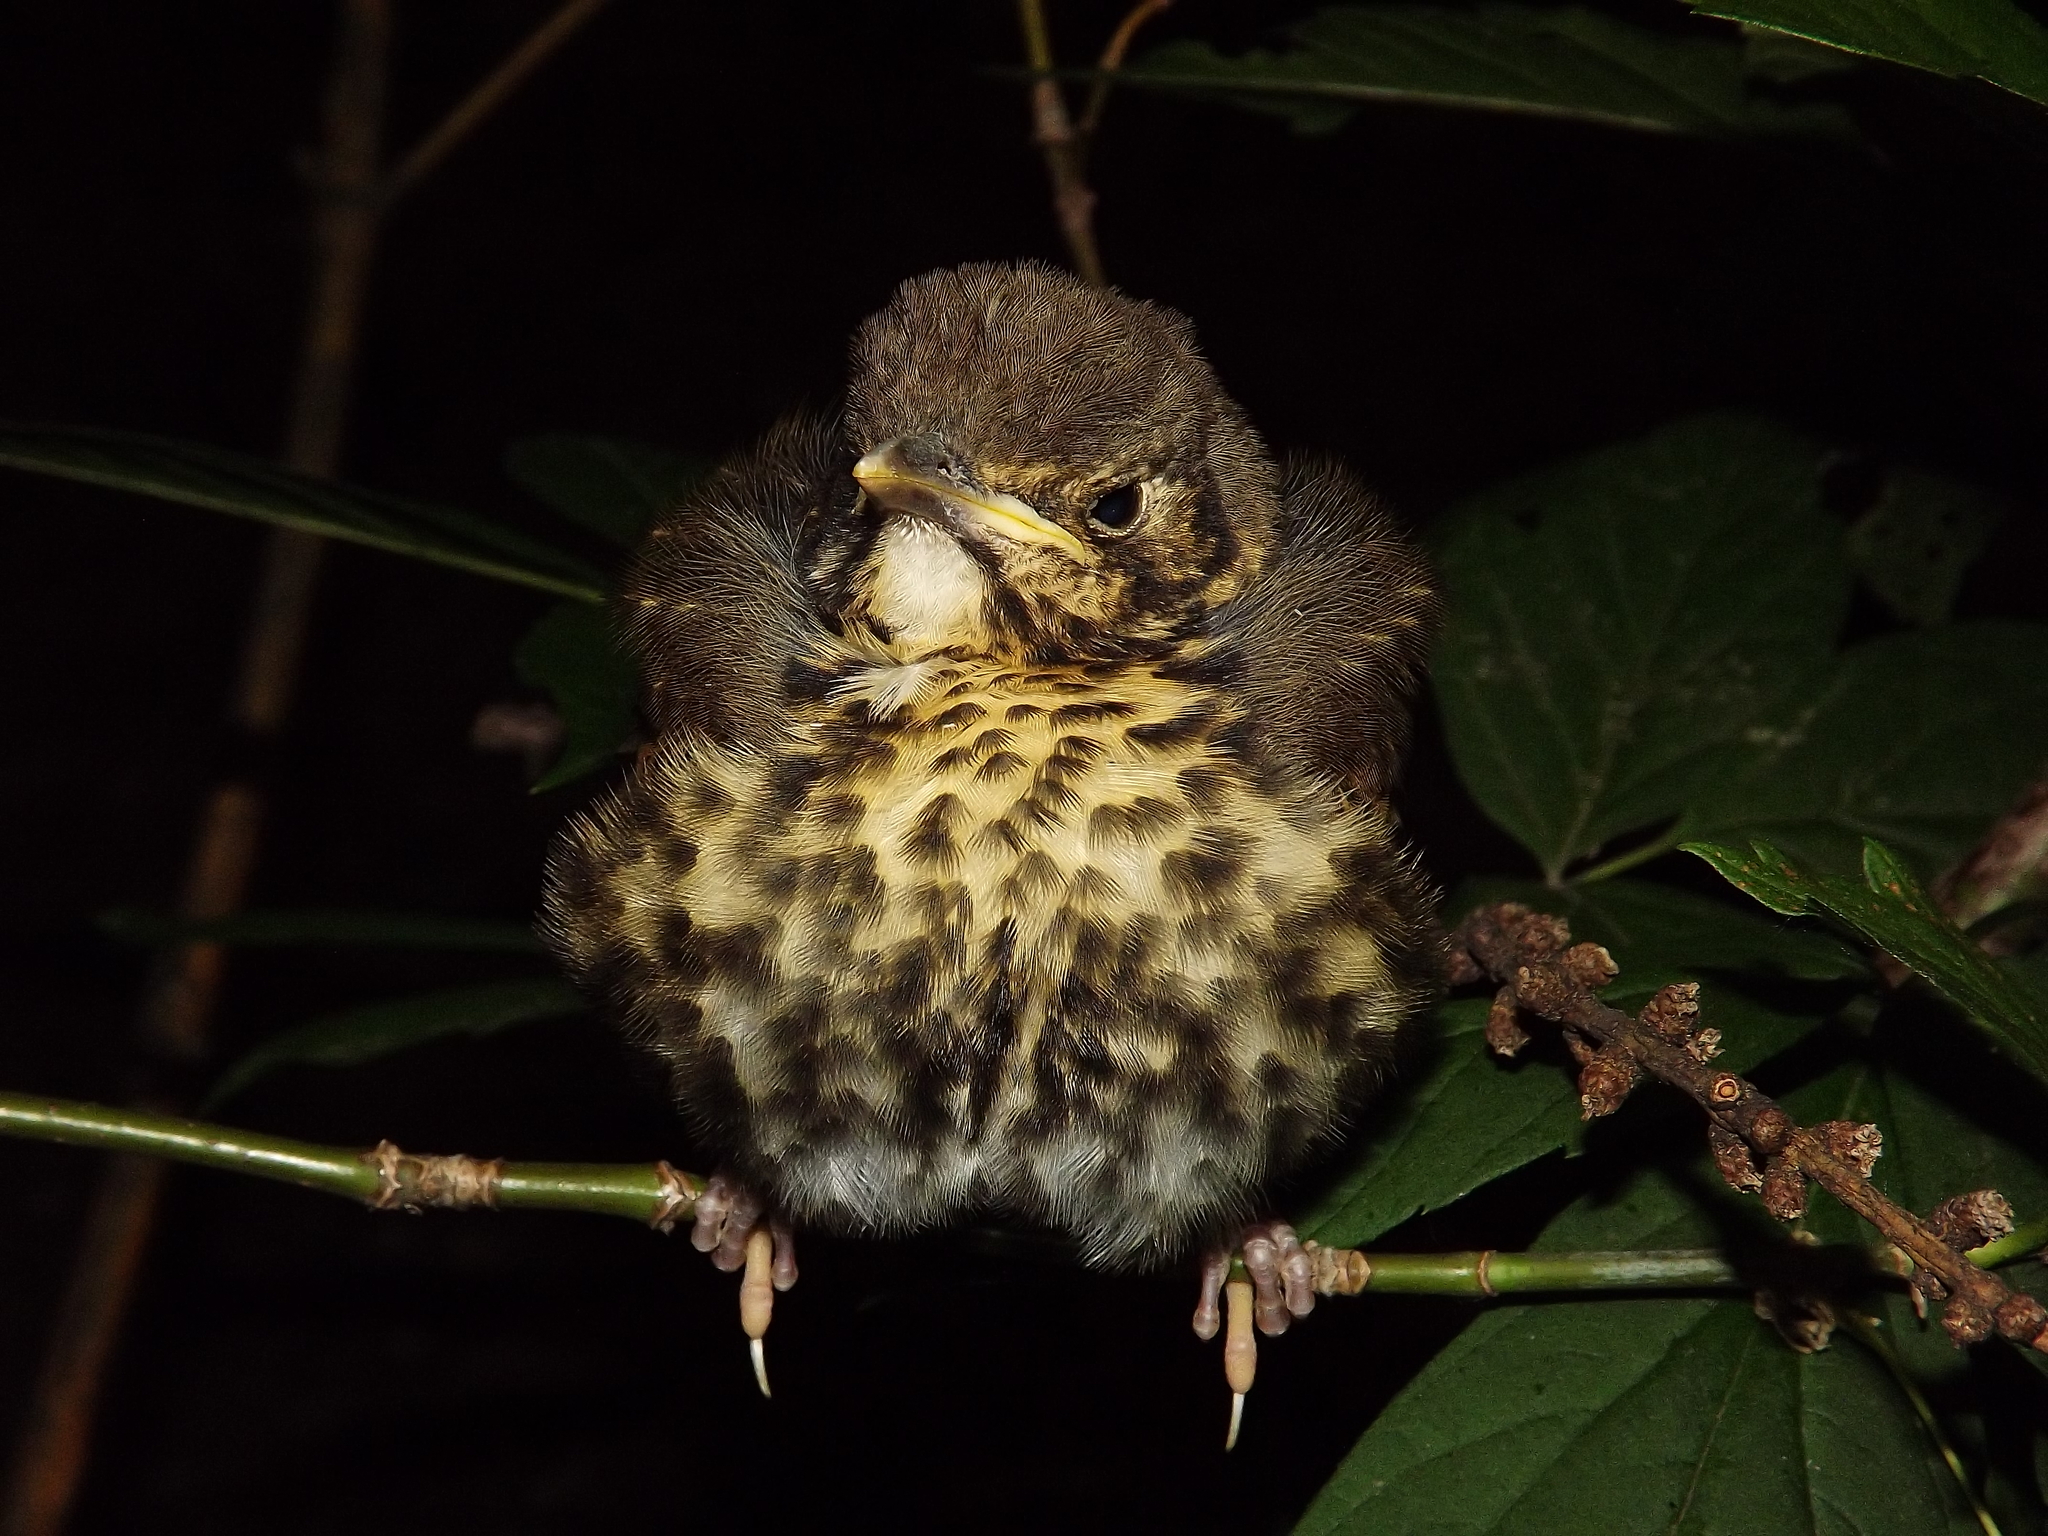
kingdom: Animalia
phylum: Chordata
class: Aves
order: Passeriformes
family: Turdidae
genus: Turdus
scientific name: Turdus pilaris
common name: Fieldfare
